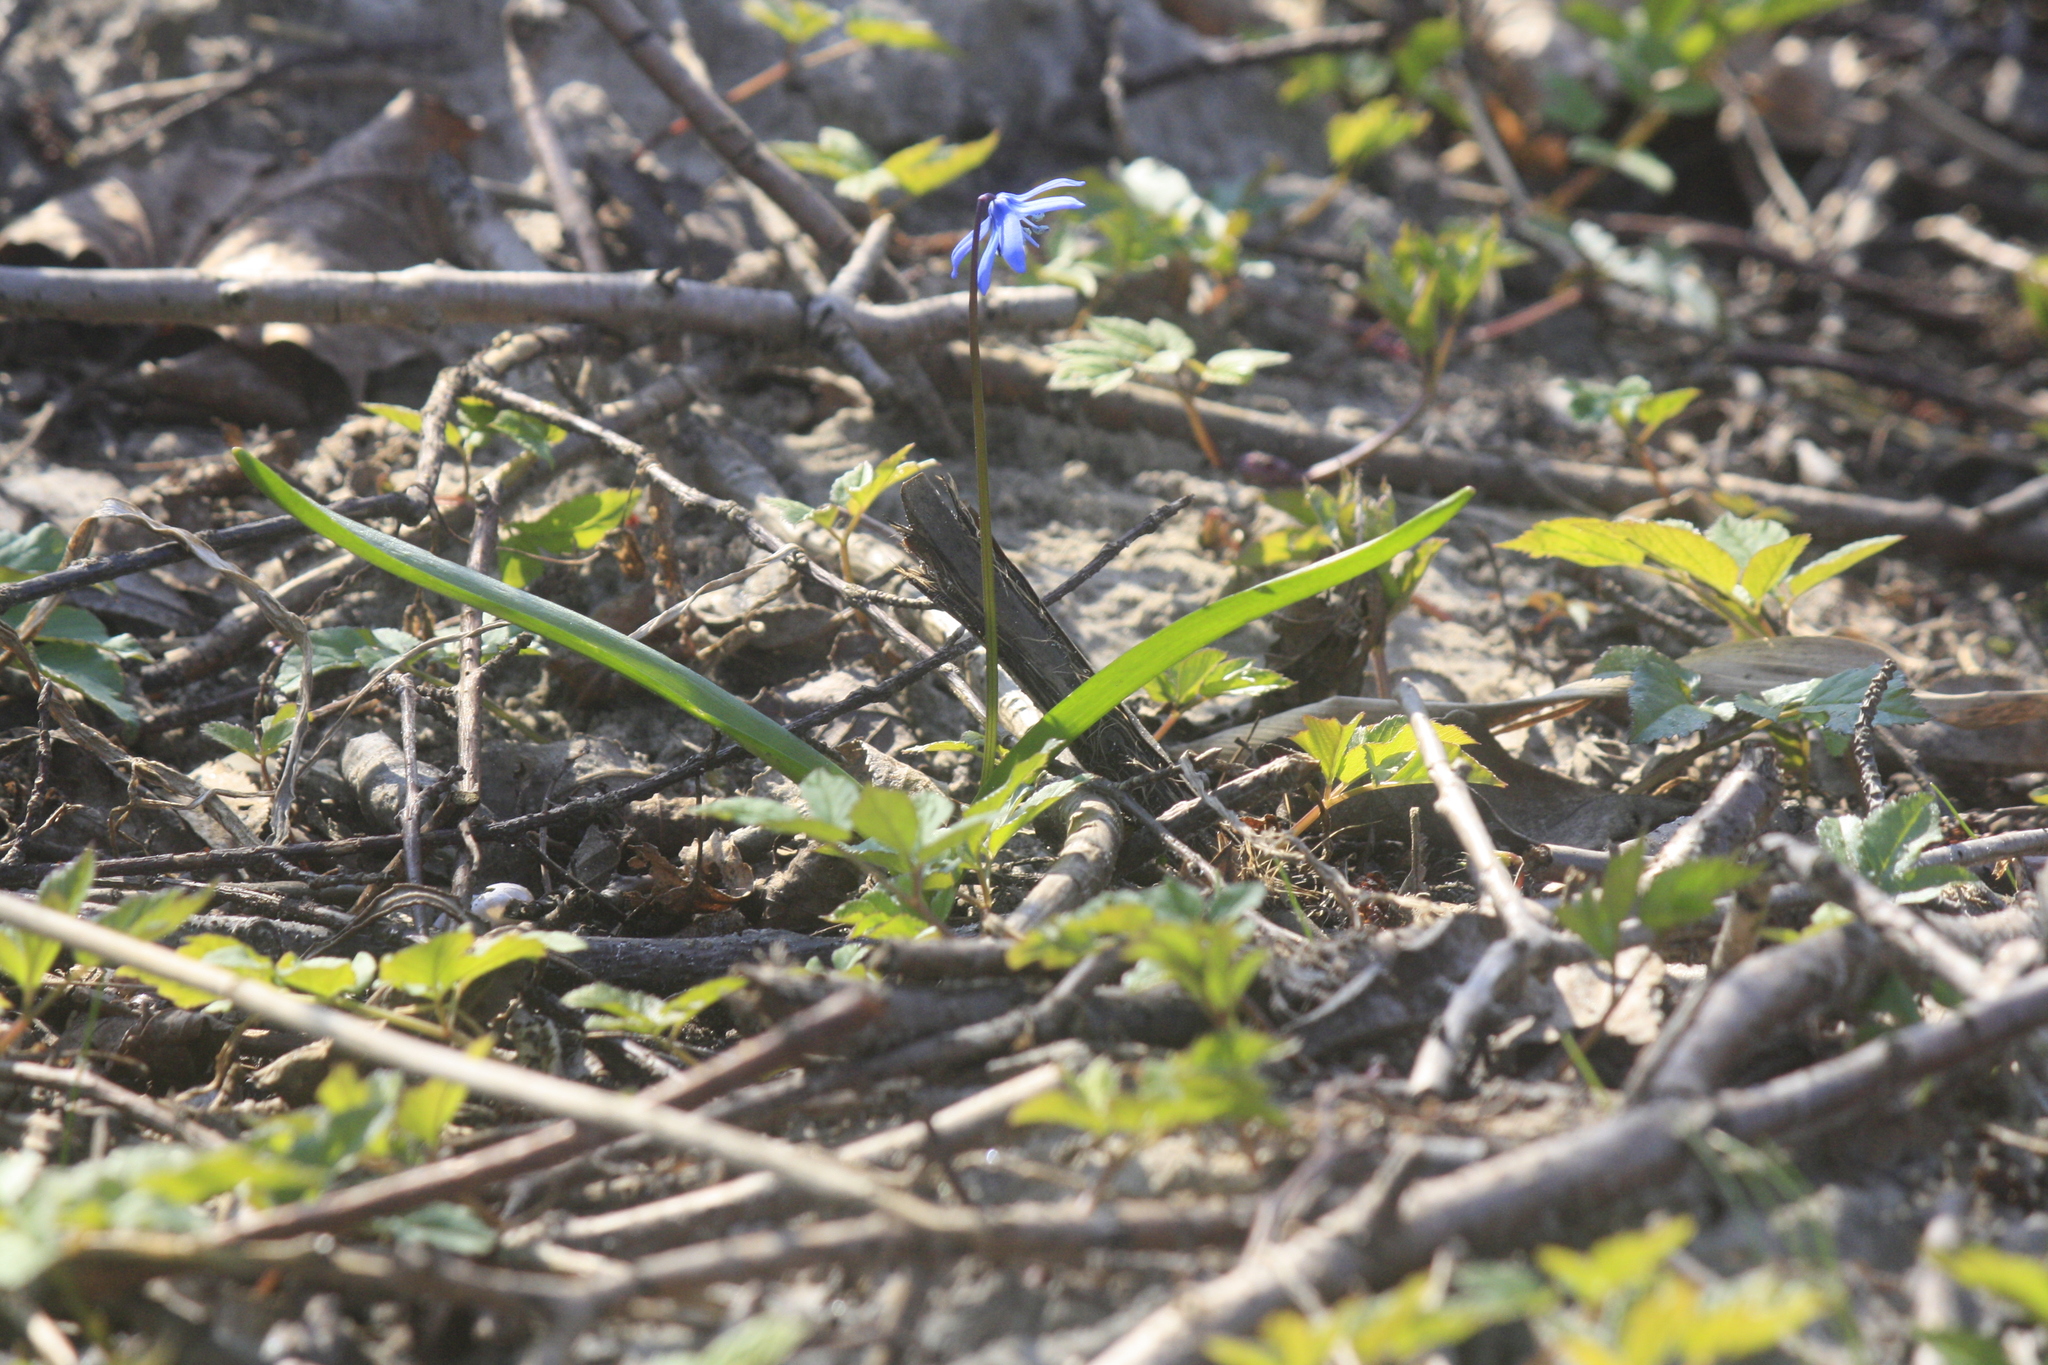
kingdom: Plantae
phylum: Tracheophyta
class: Liliopsida
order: Asparagales
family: Asparagaceae
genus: Scilla
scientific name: Scilla siberica
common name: Siberian squill
